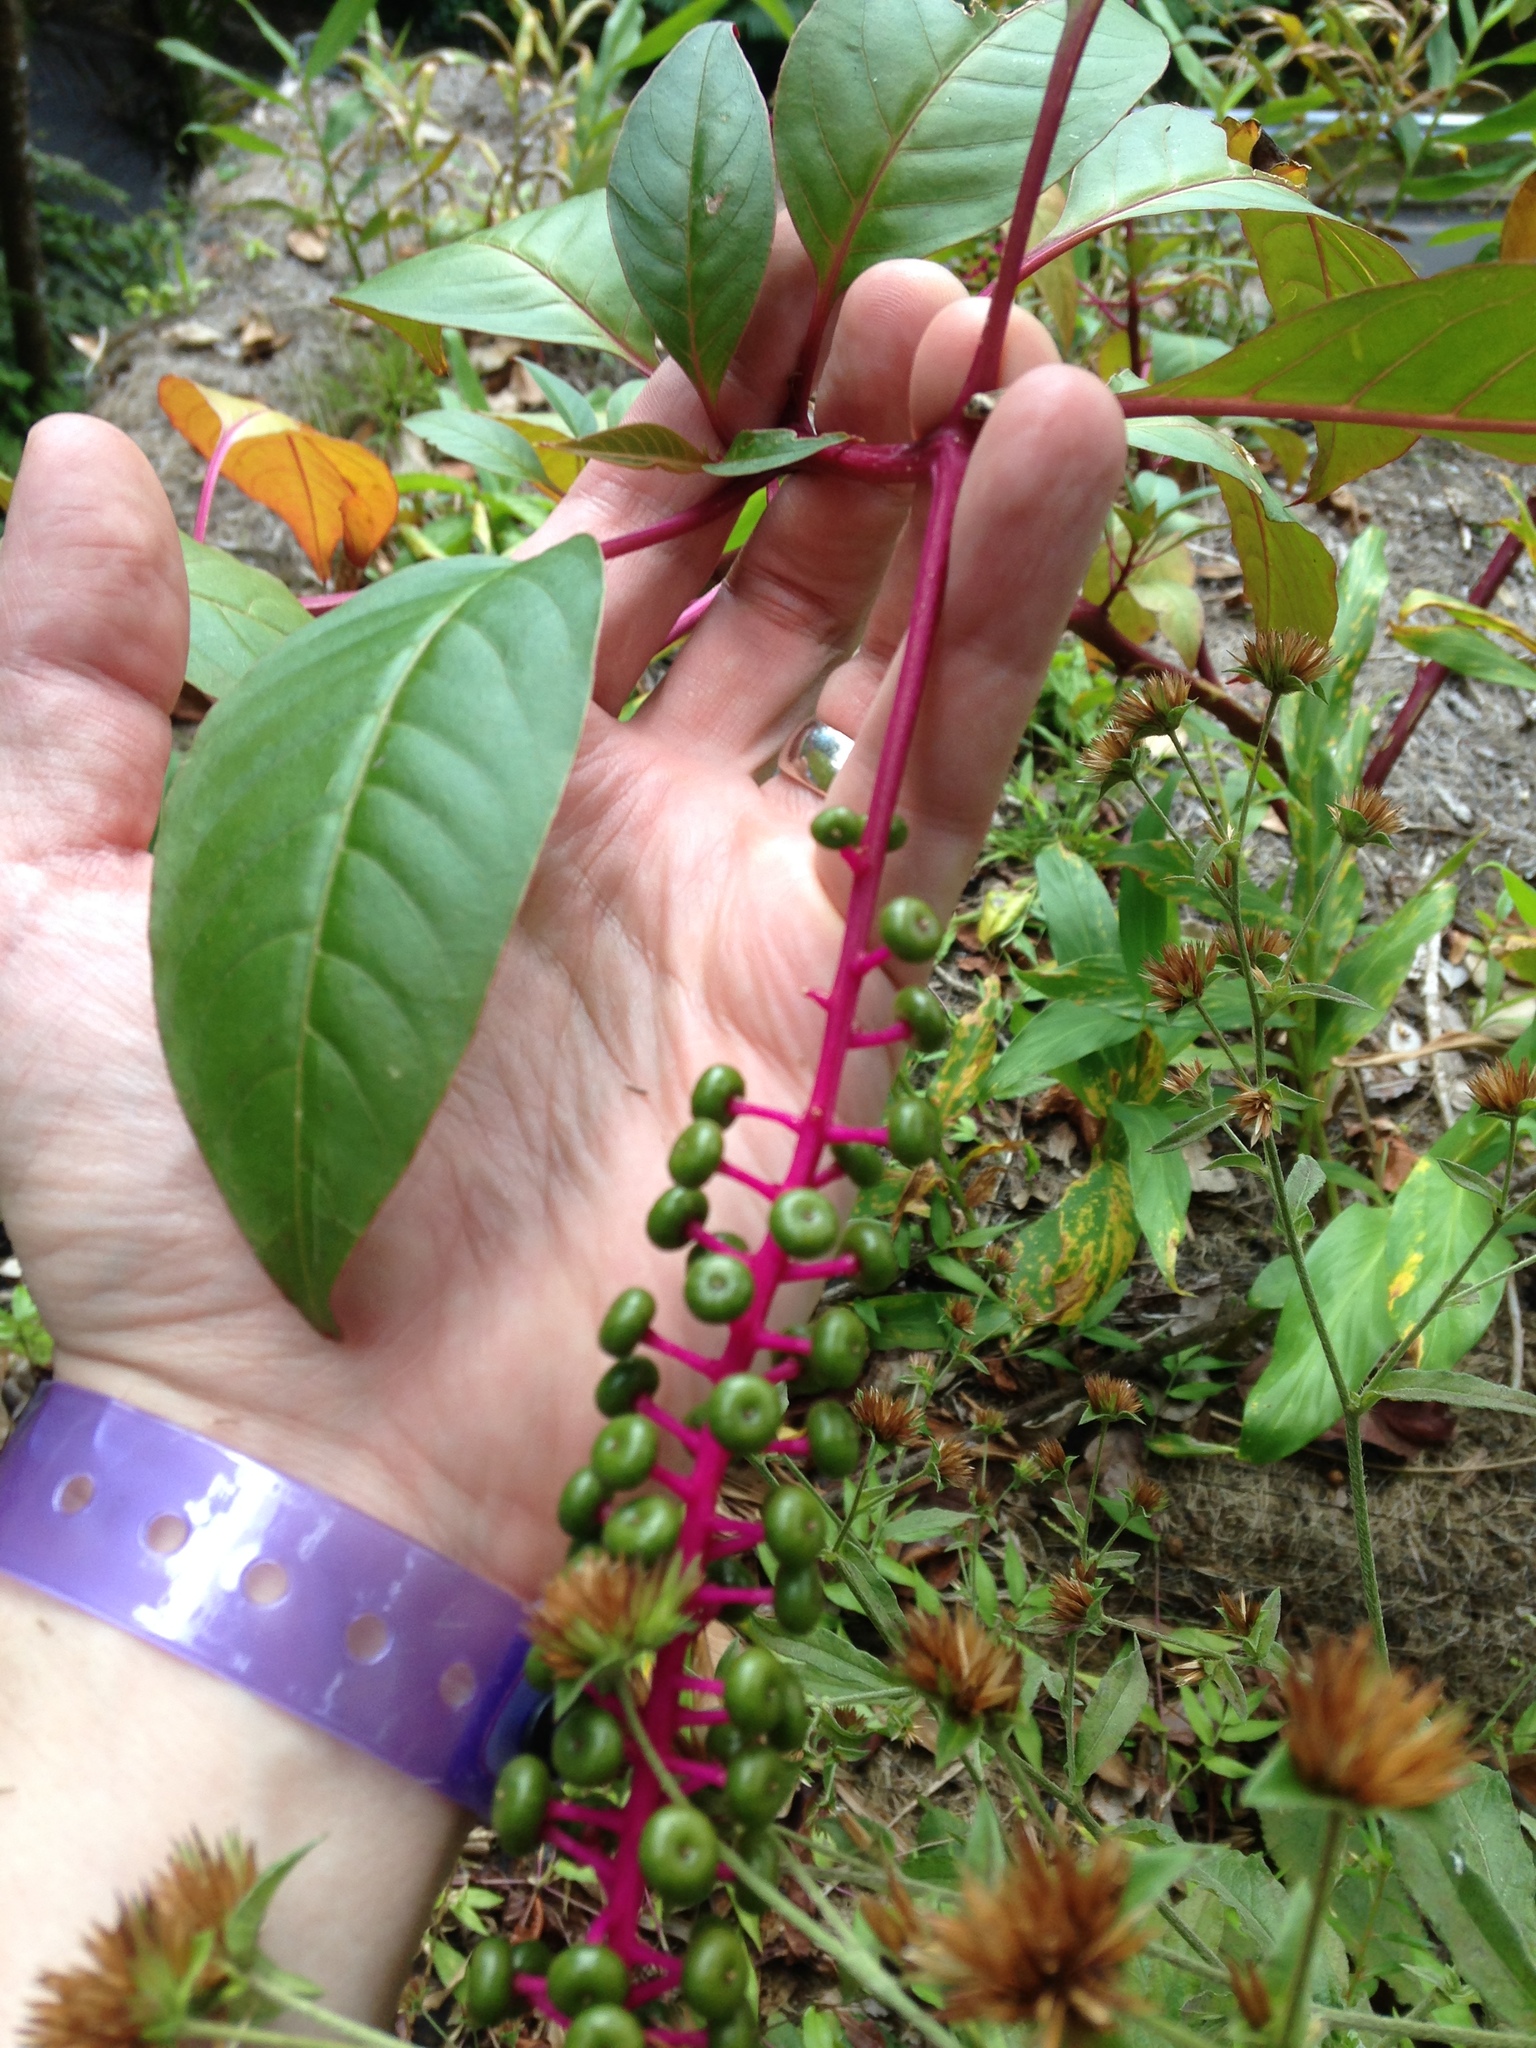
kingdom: Plantae
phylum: Tracheophyta
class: Magnoliopsida
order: Caryophyllales
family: Phytolaccaceae
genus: Phytolacca
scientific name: Phytolacca rivinoides
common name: Venezuelan pokeweed
